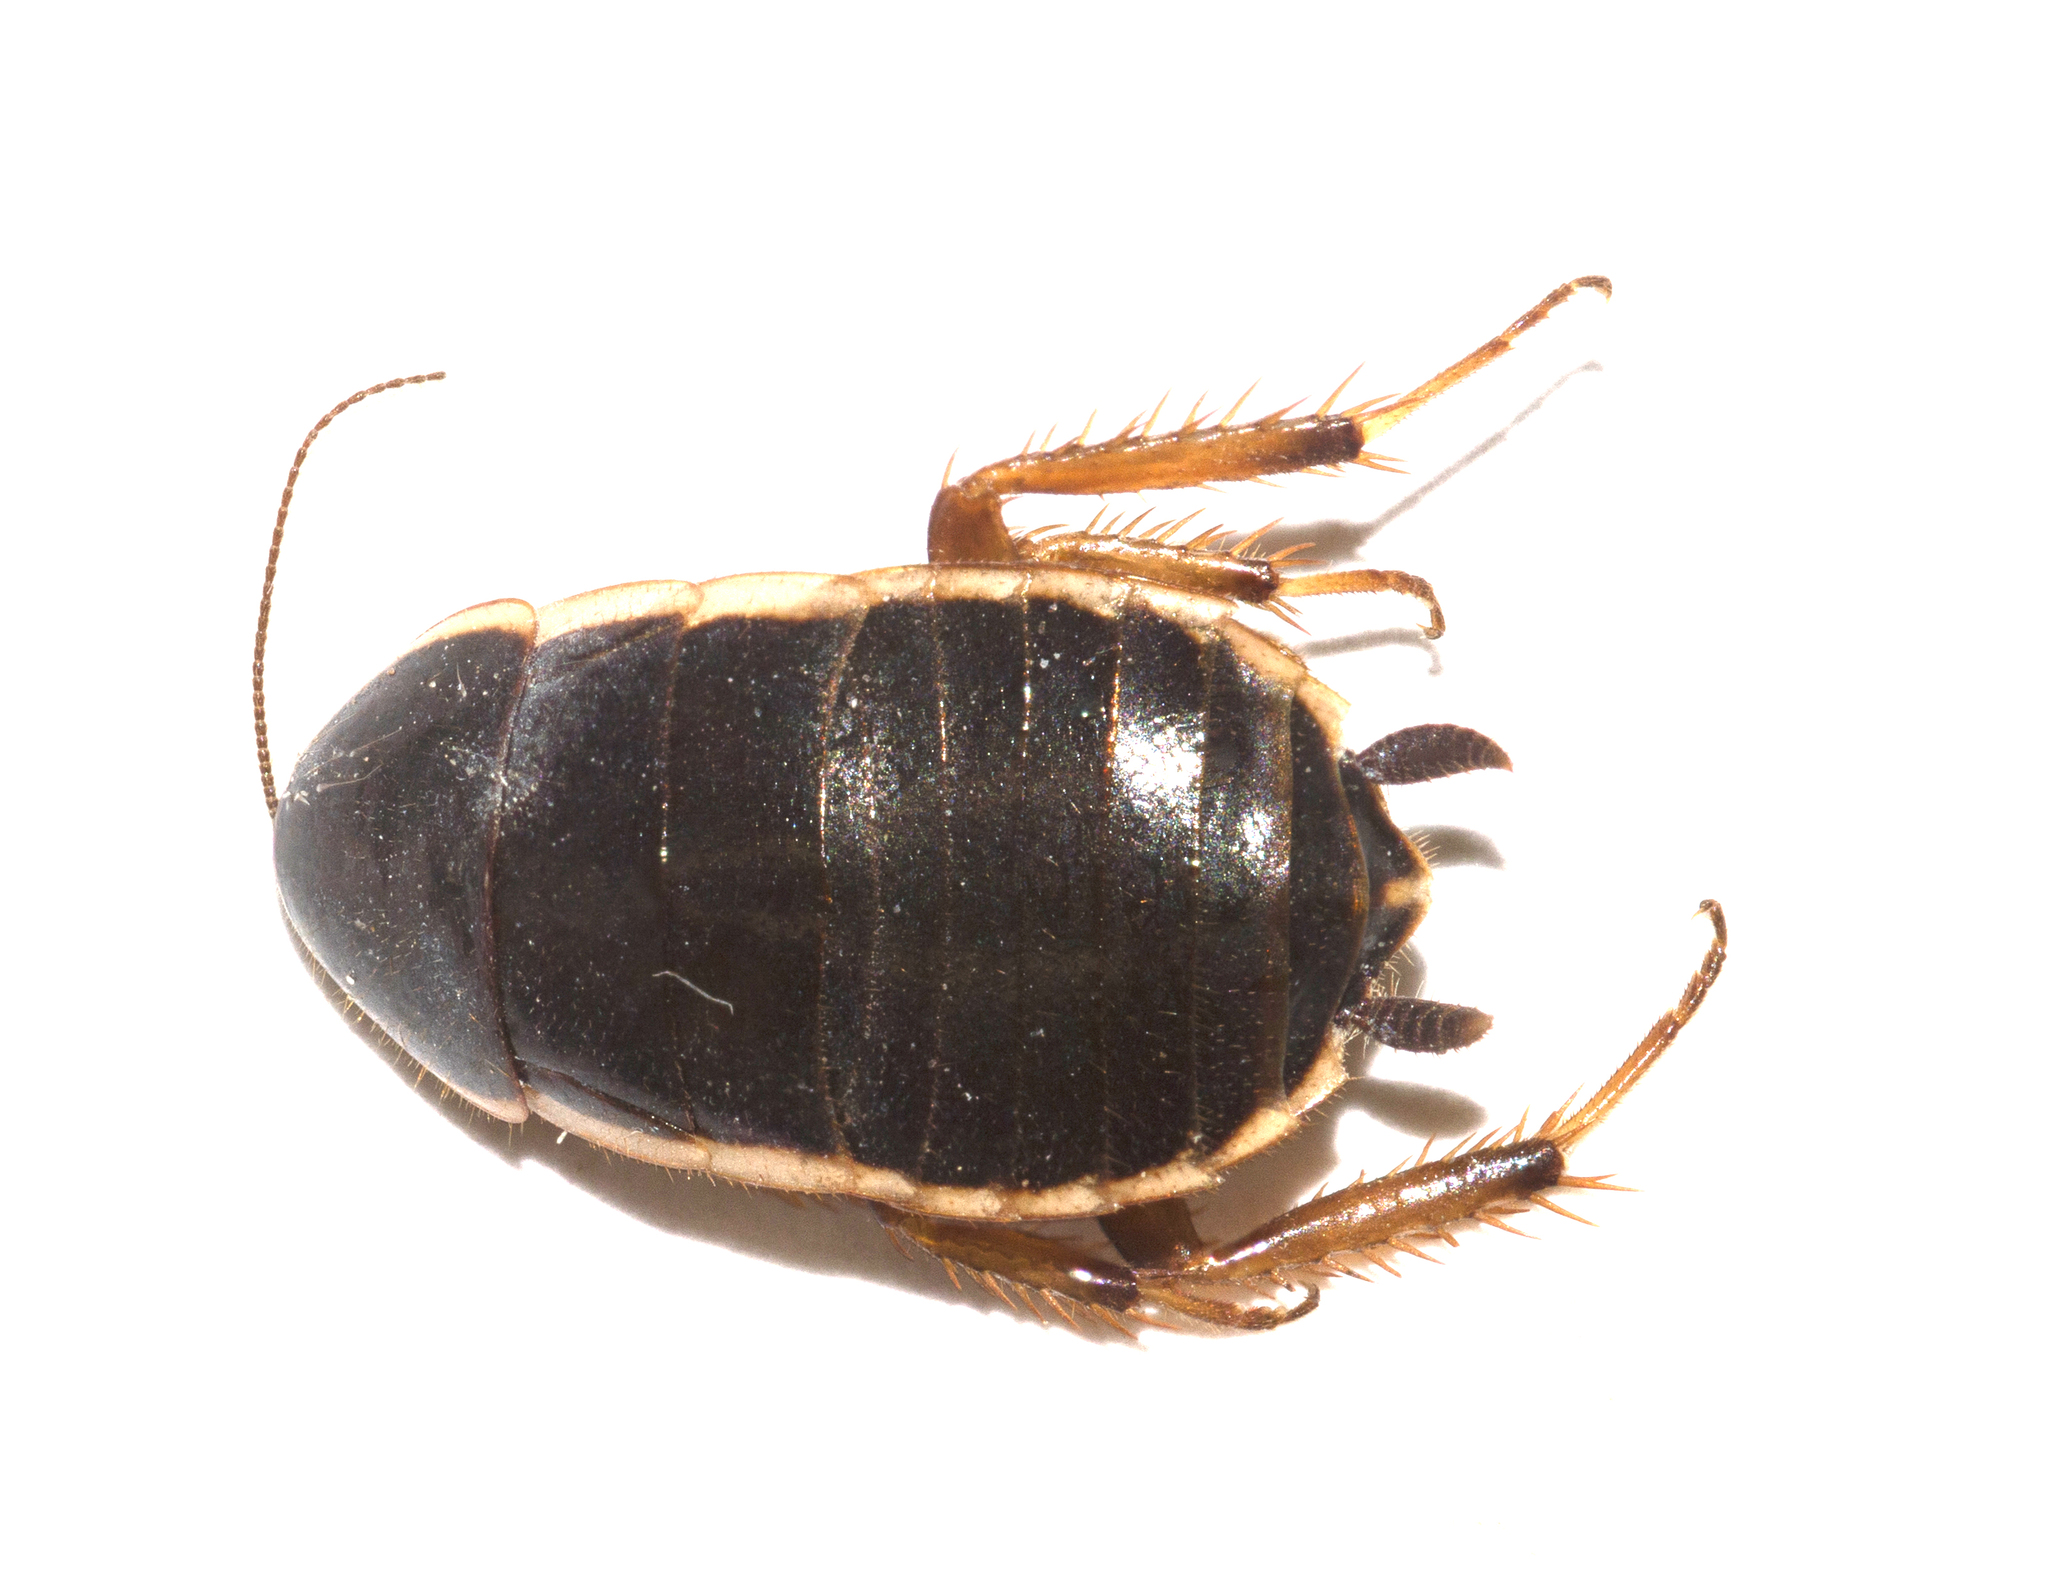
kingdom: Animalia
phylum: Arthropoda
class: Insecta
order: Blattodea
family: Ectobiidae
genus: Loboptera
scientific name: Loboptera decipiens
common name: Lobe-winged cockroach
